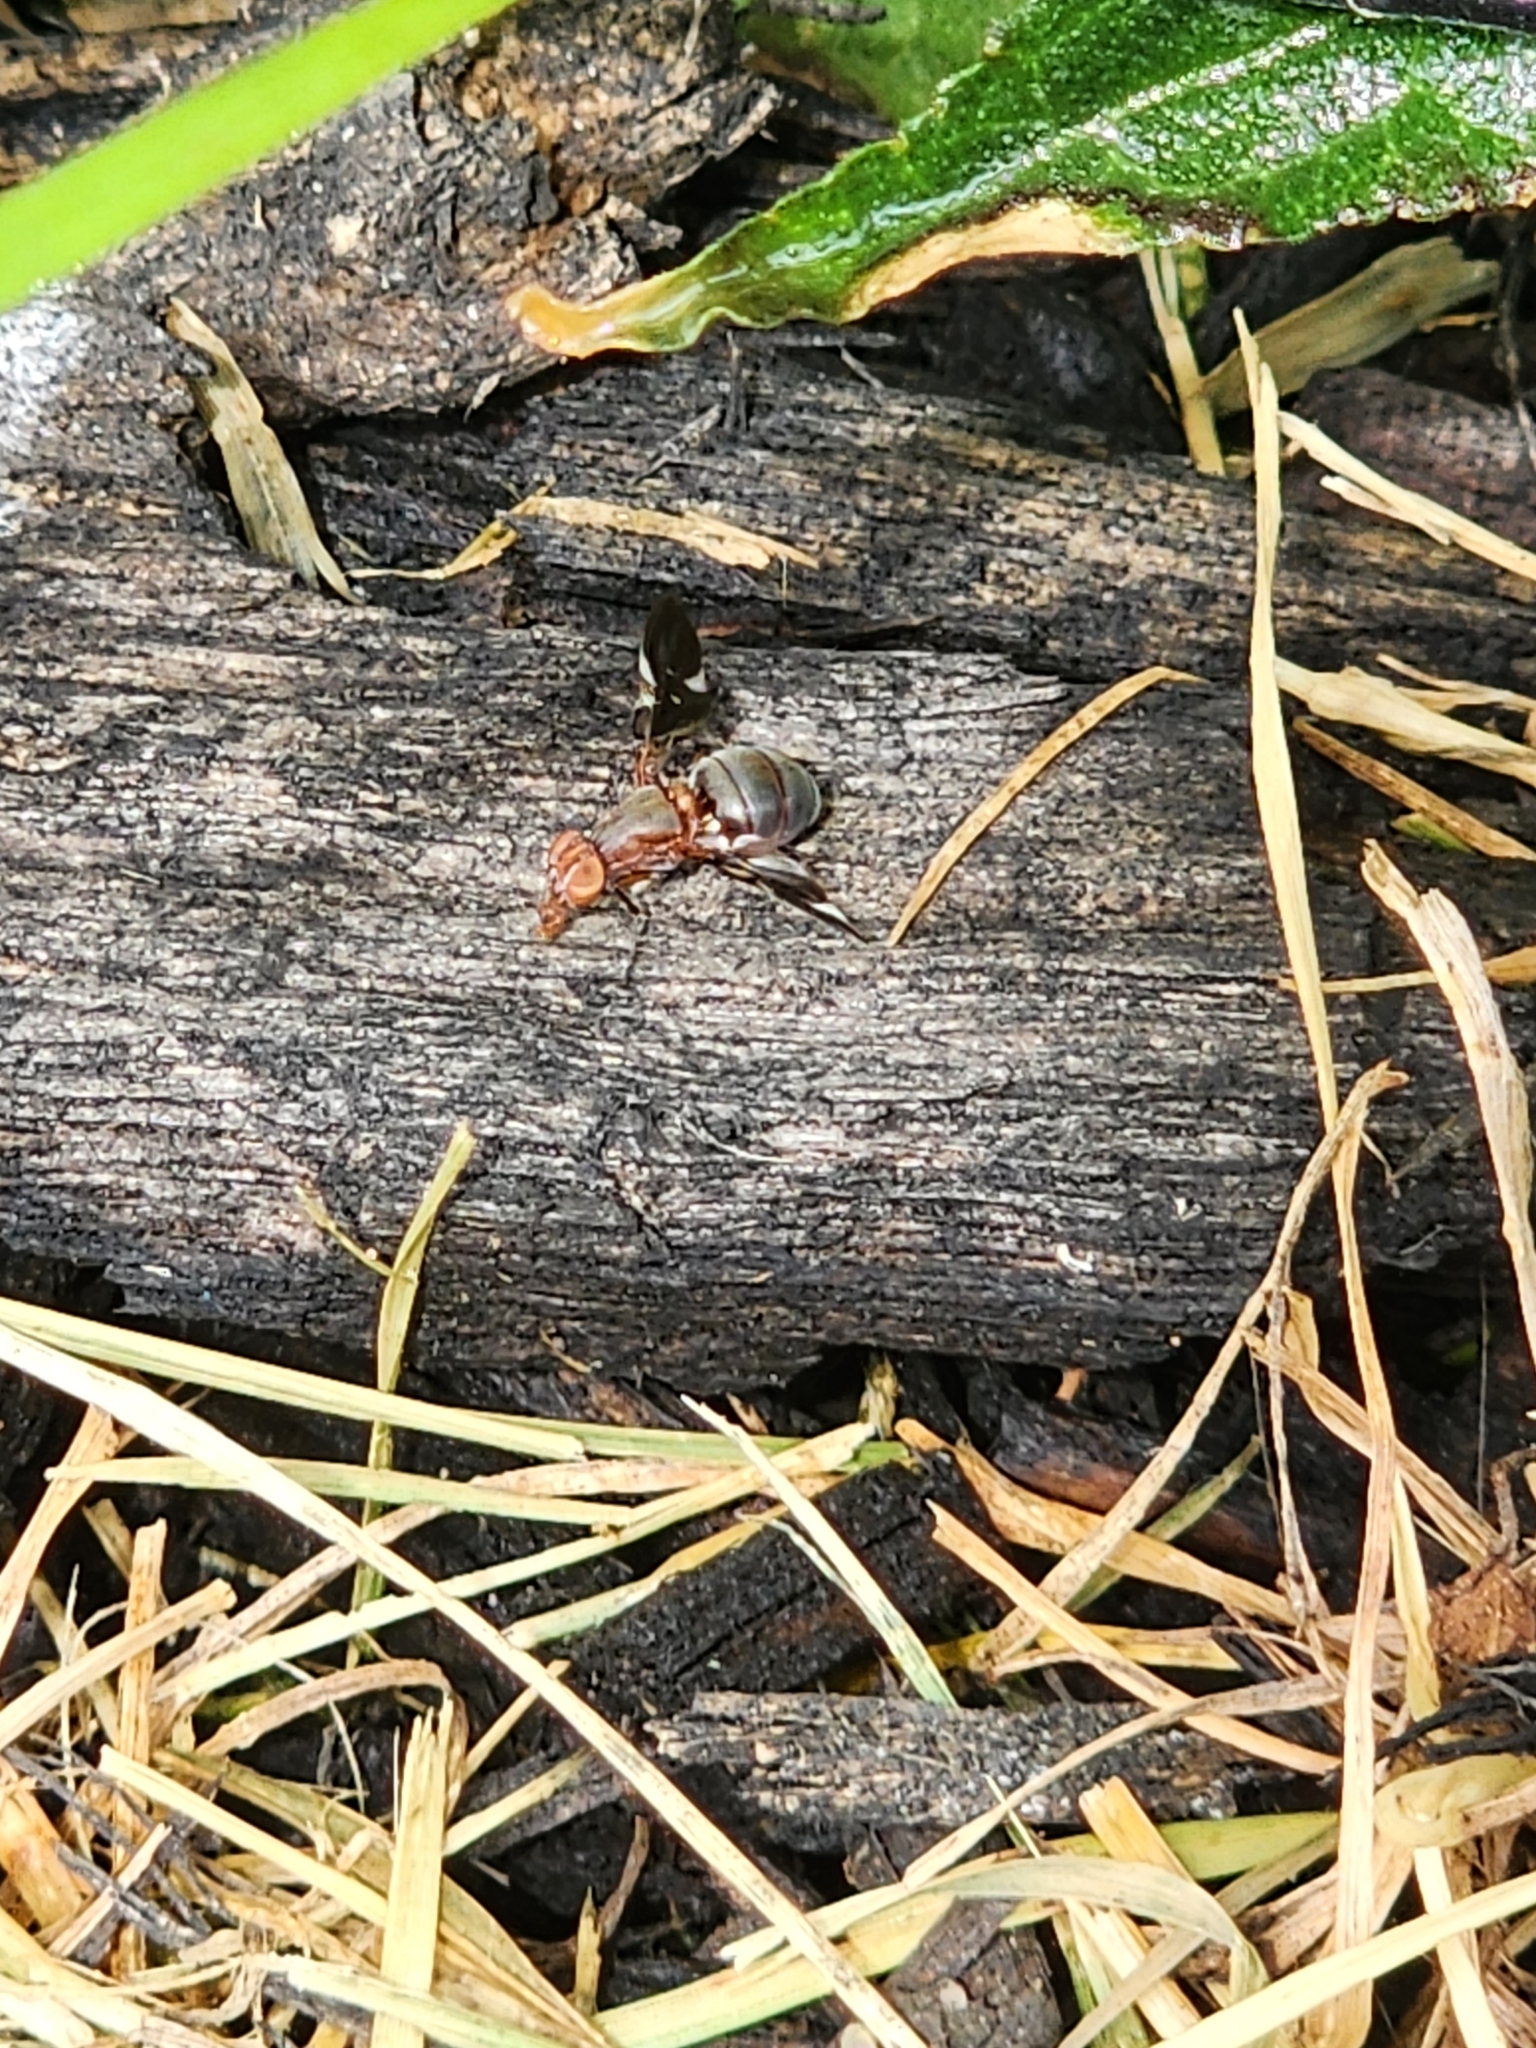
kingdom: Animalia
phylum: Arthropoda
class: Insecta
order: Diptera
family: Ulidiidae
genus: Delphinia
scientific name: Delphinia picta
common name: Common picture-winged fly
